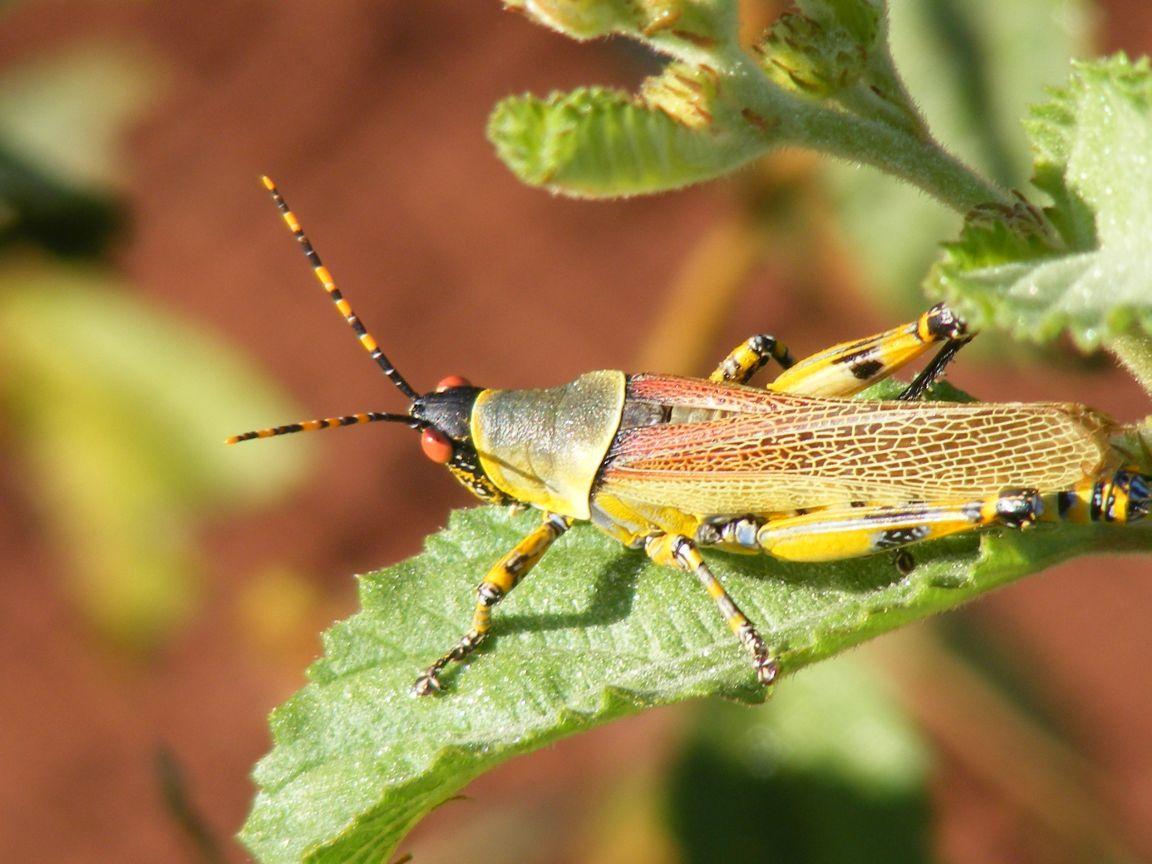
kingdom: Animalia
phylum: Arthropoda
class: Insecta
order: Orthoptera
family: Pyrgomorphidae
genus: Zonocerus
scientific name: Zonocerus elegans
